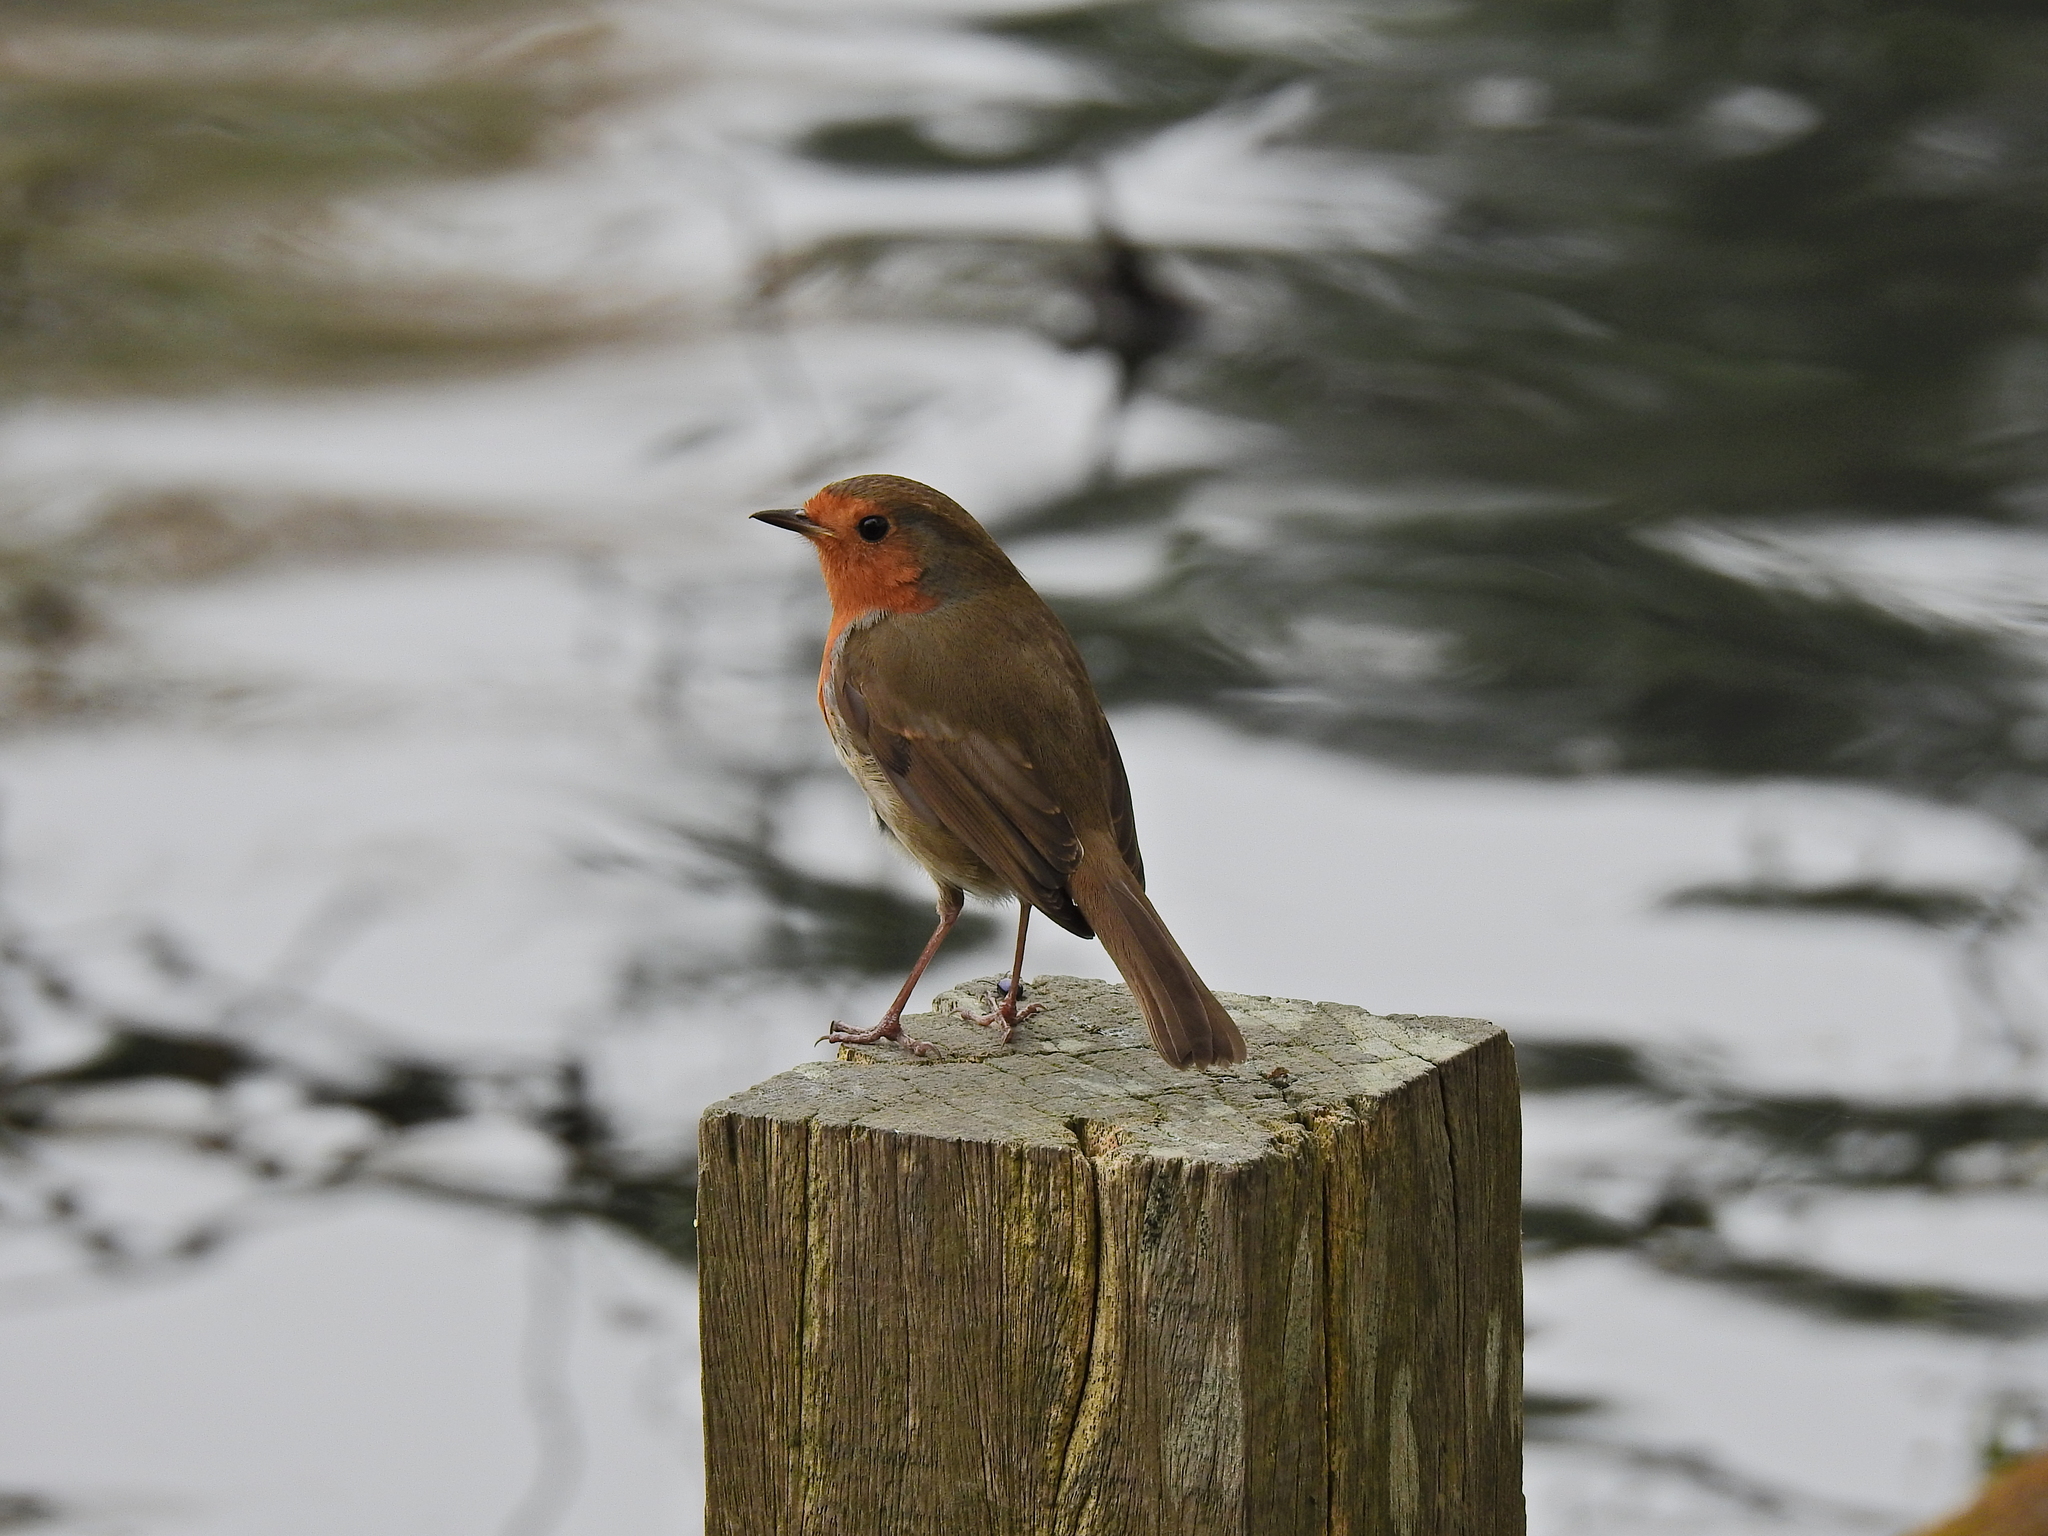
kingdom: Animalia
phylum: Chordata
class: Aves
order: Passeriformes
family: Muscicapidae
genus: Erithacus
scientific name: Erithacus rubecula
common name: European robin
